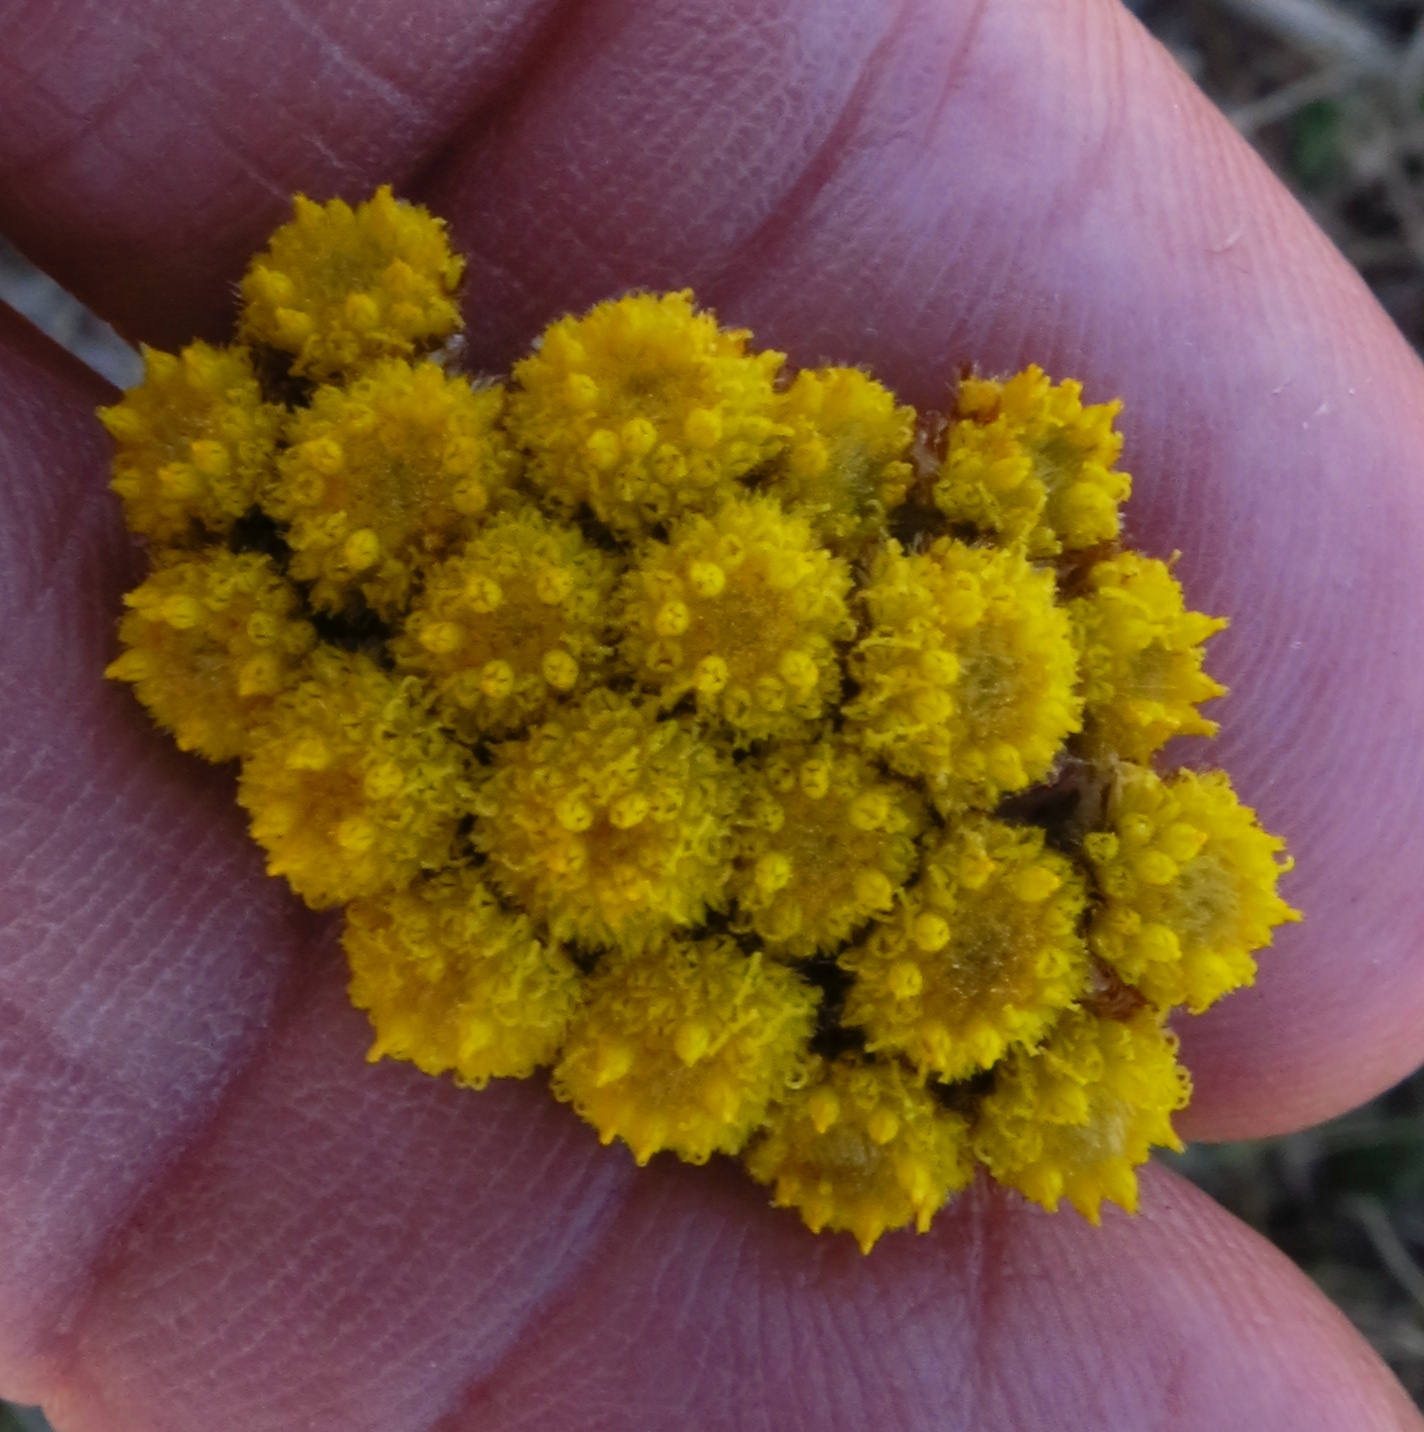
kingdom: Plantae
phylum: Tracheophyta
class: Magnoliopsida
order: Asterales
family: Asteraceae
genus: Helichrysum
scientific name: Helichrysum nudifolium
